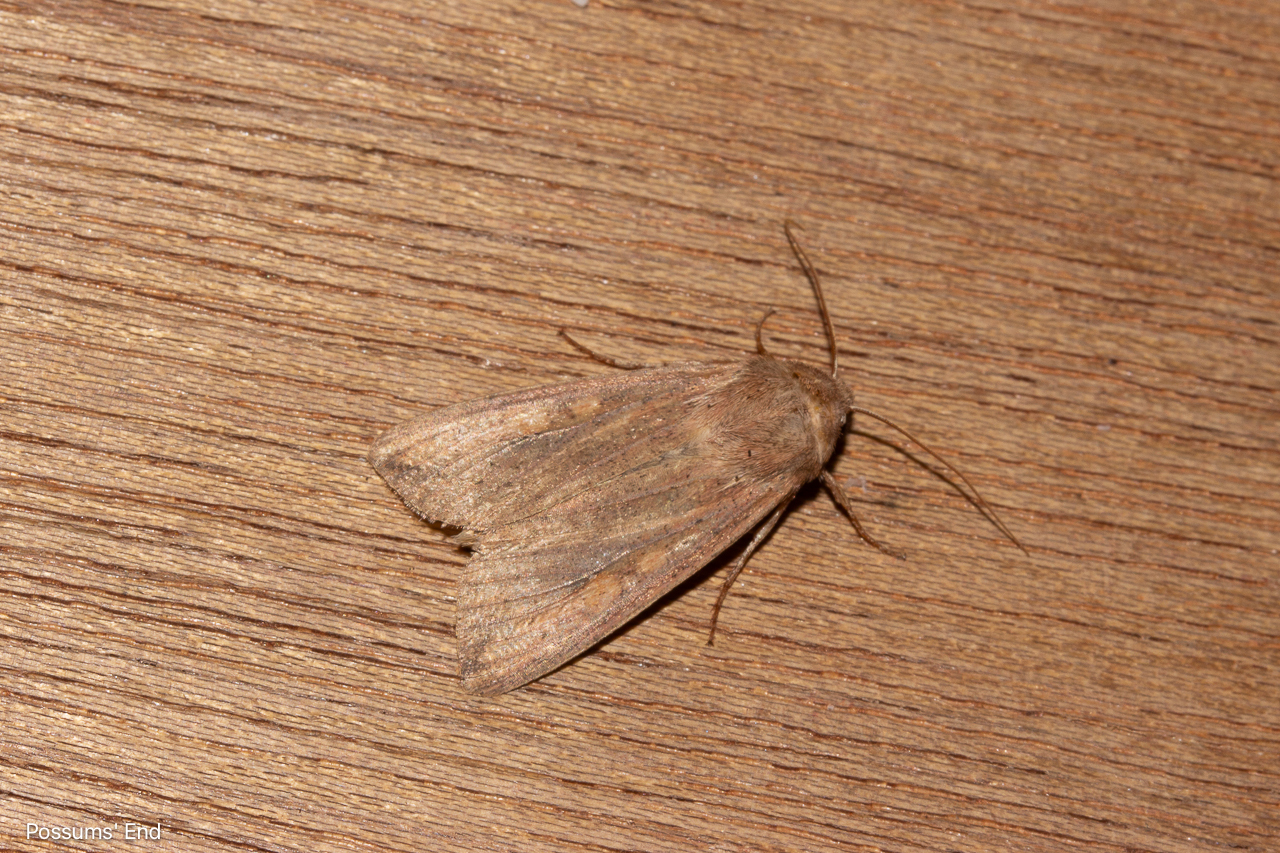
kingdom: Animalia
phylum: Arthropoda
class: Insecta
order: Lepidoptera
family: Noctuidae
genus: Mythimna
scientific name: Mythimna separata
